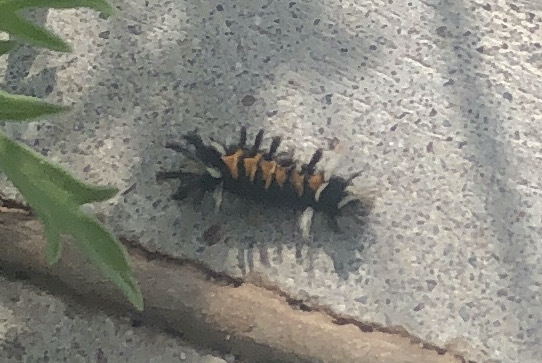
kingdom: Animalia
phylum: Arthropoda
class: Insecta
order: Lepidoptera
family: Erebidae
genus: Euchaetes
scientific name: Euchaetes egle
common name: Milkweed tussock moth
